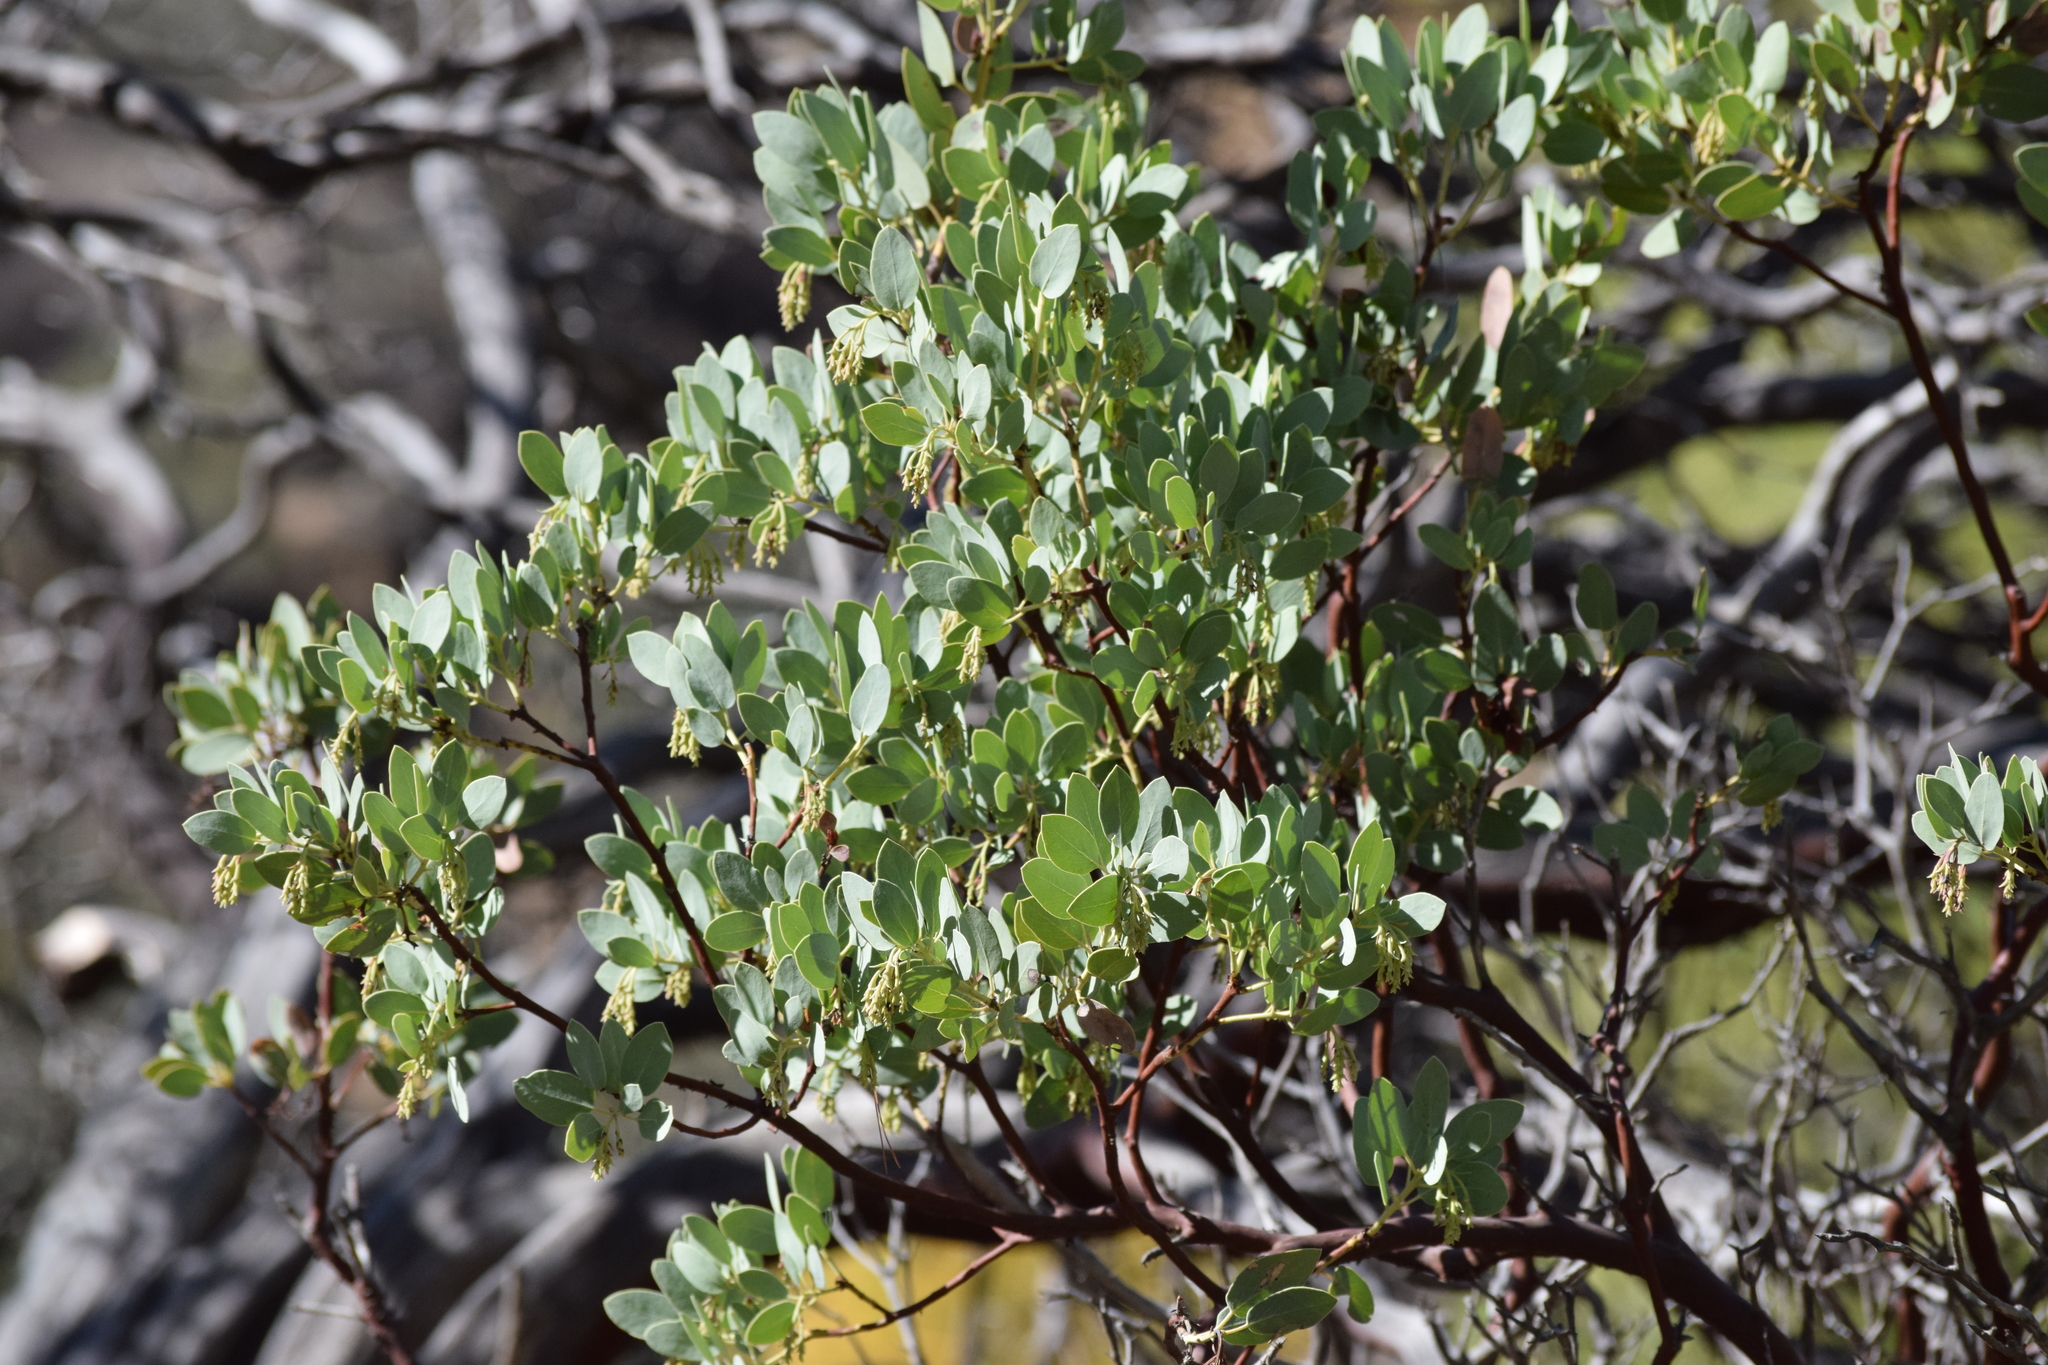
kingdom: Plantae
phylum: Tracheophyta
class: Magnoliopsida
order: Ericales
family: Ericaceae
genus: Arctostaphylos
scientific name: Arctostaphylos glauca
